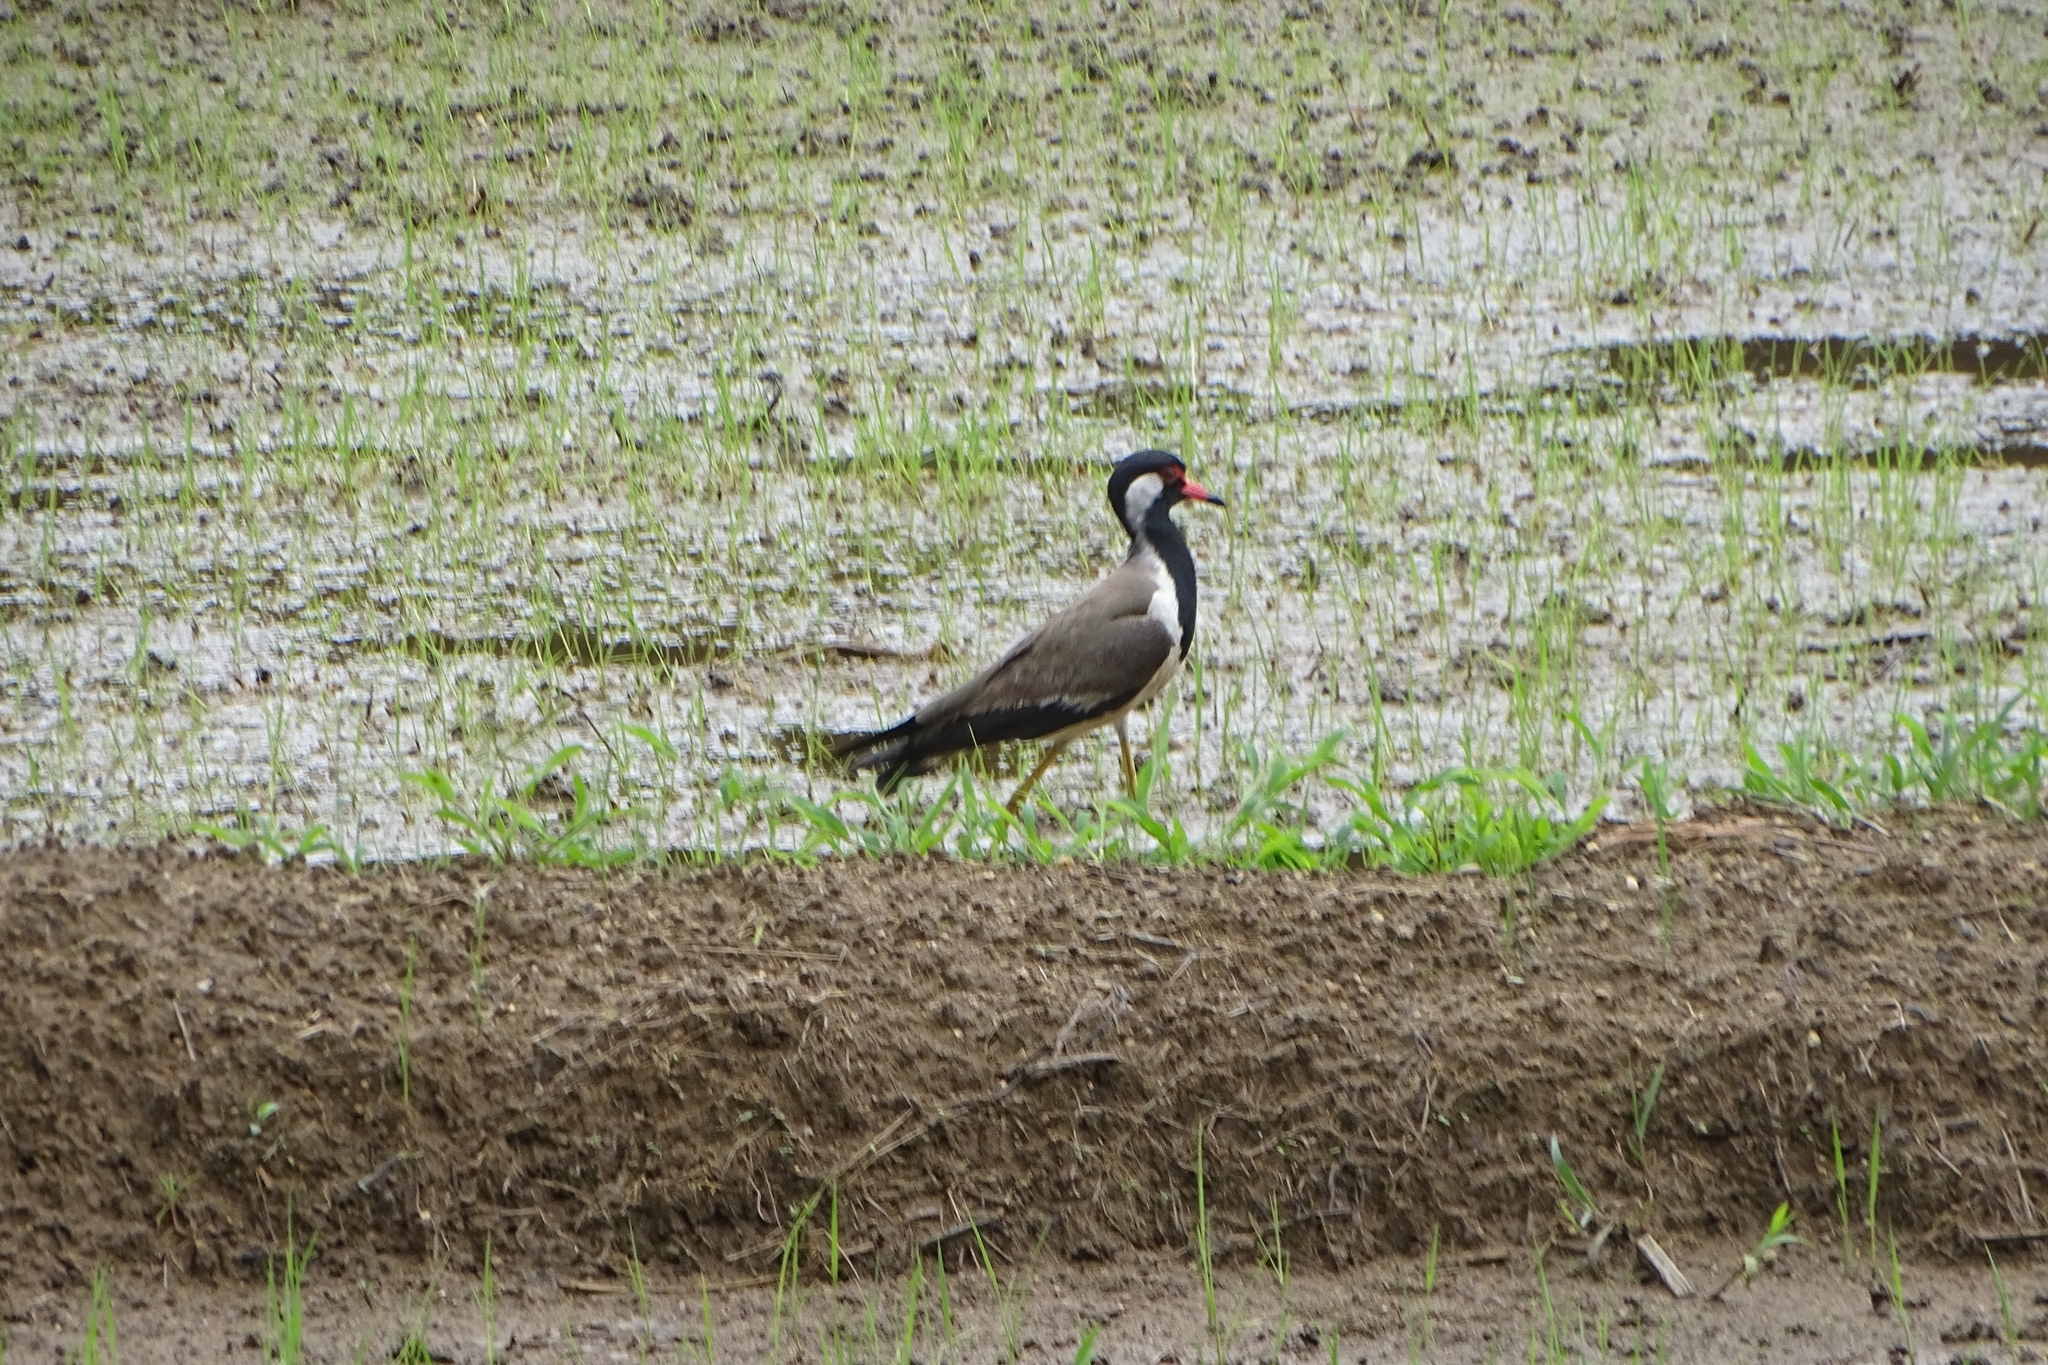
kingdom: Animalia
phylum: Chordata
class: Aves
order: Charadriiformes
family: Charadriidae
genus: Vanellus
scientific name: Vanellus indicus
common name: Red-wattled lapwing
